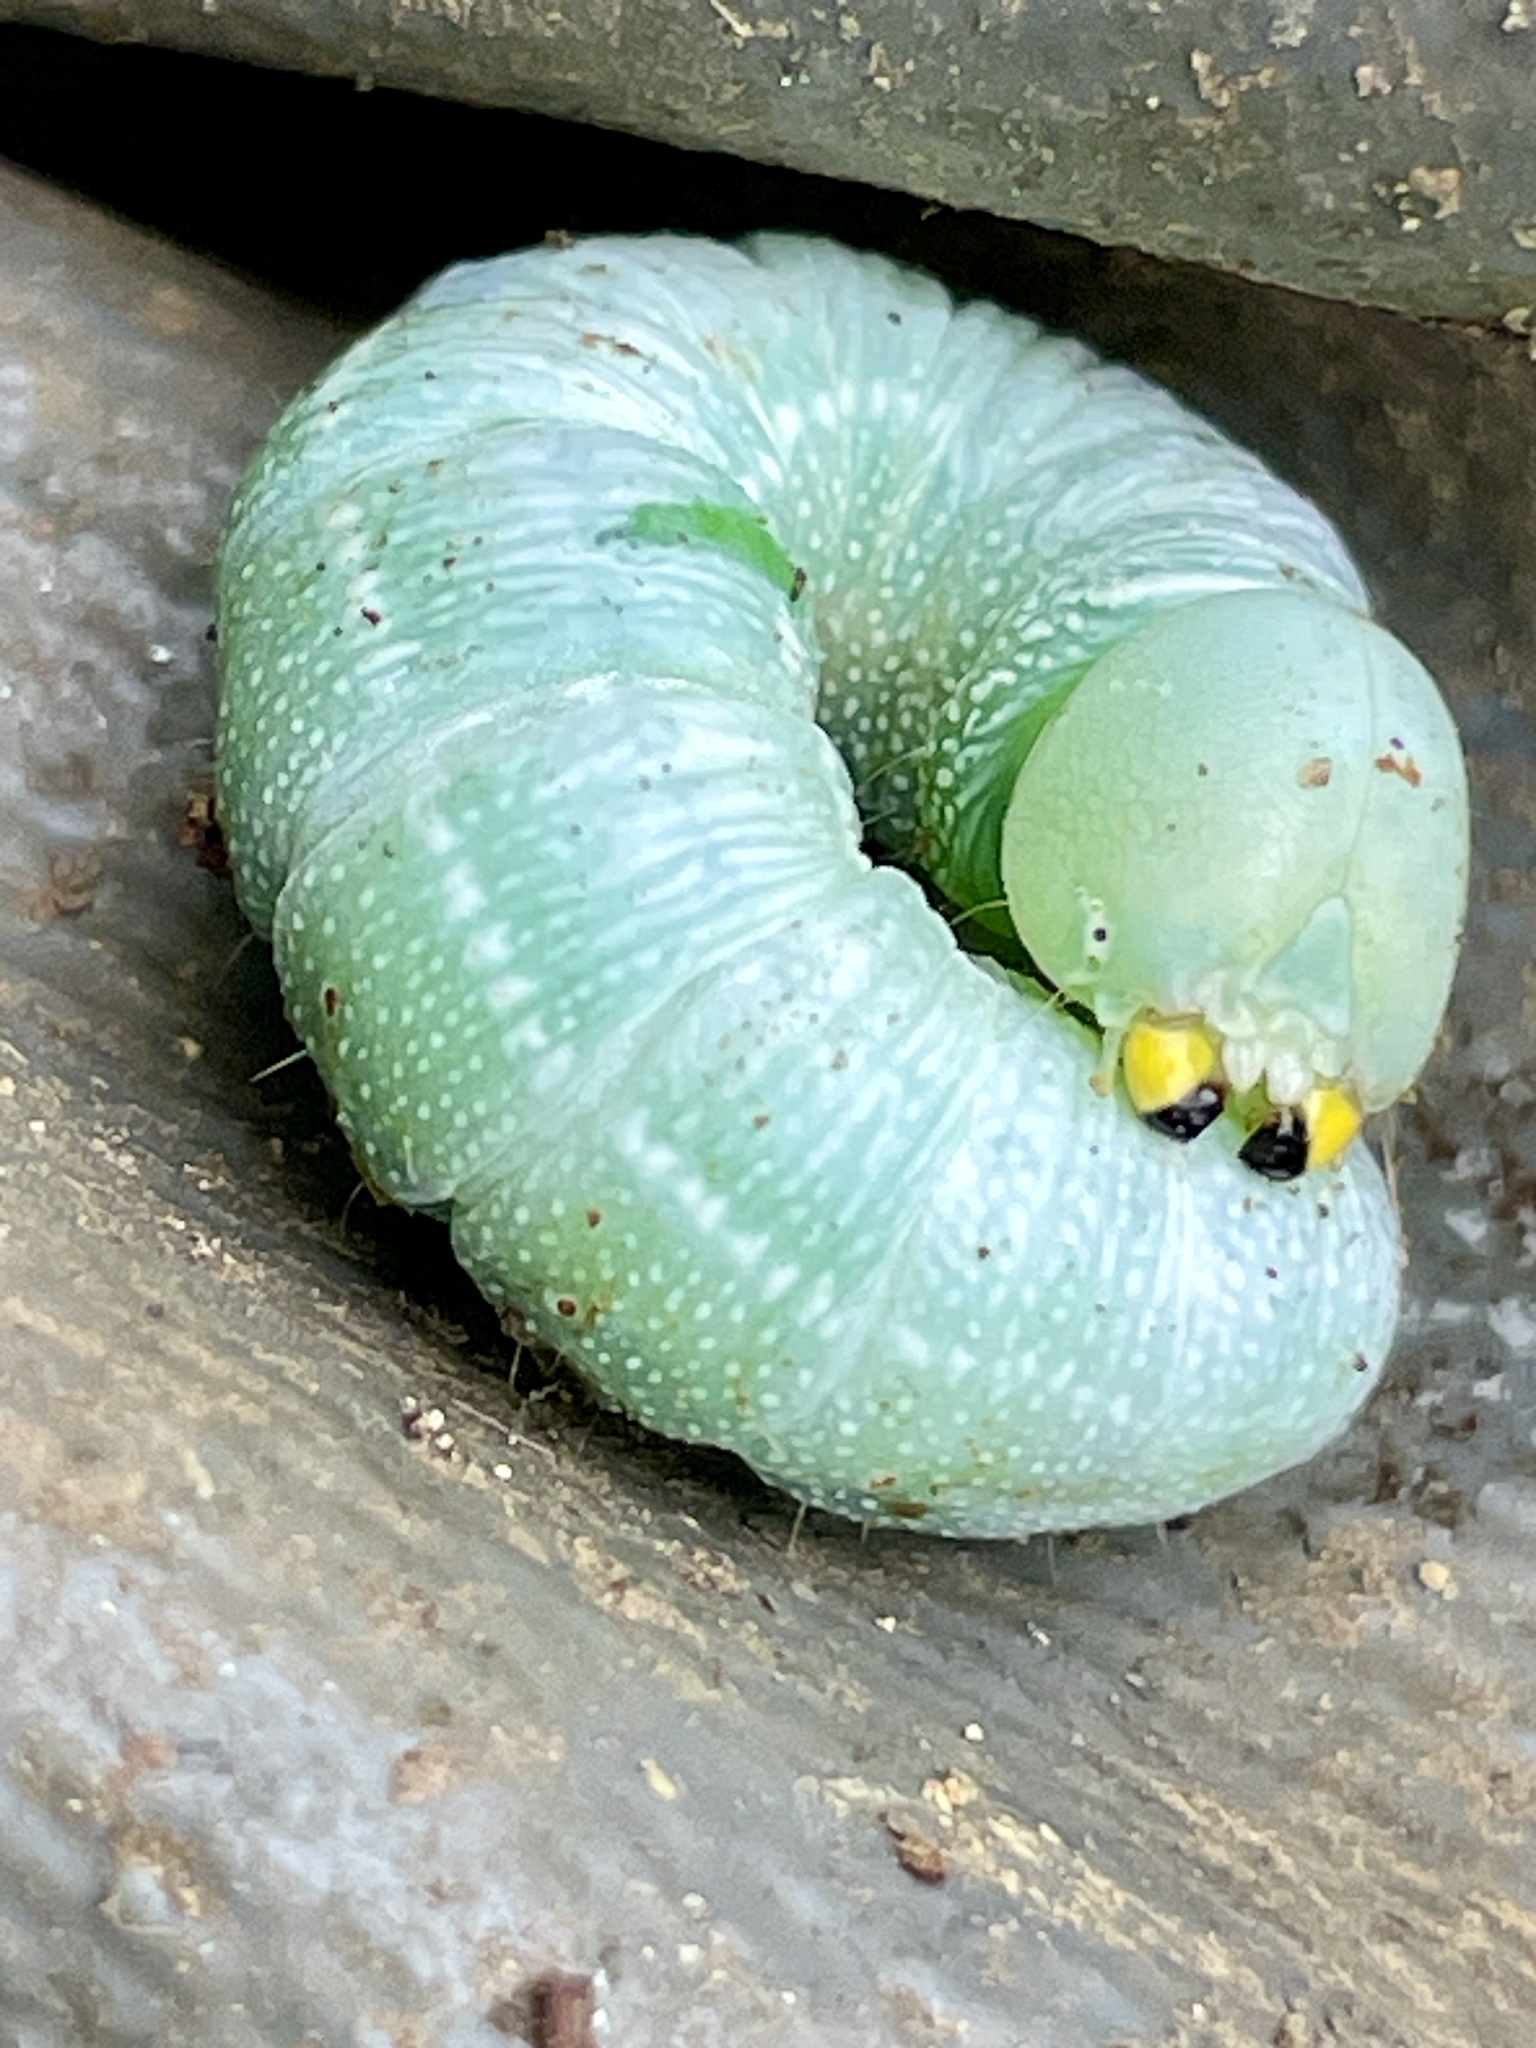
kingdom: Animalia
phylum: Arthropoda
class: Insecta
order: Lepidoptera
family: Notodontidae
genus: Nadata
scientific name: Nadata gibbosa
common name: White-dotted prominent
